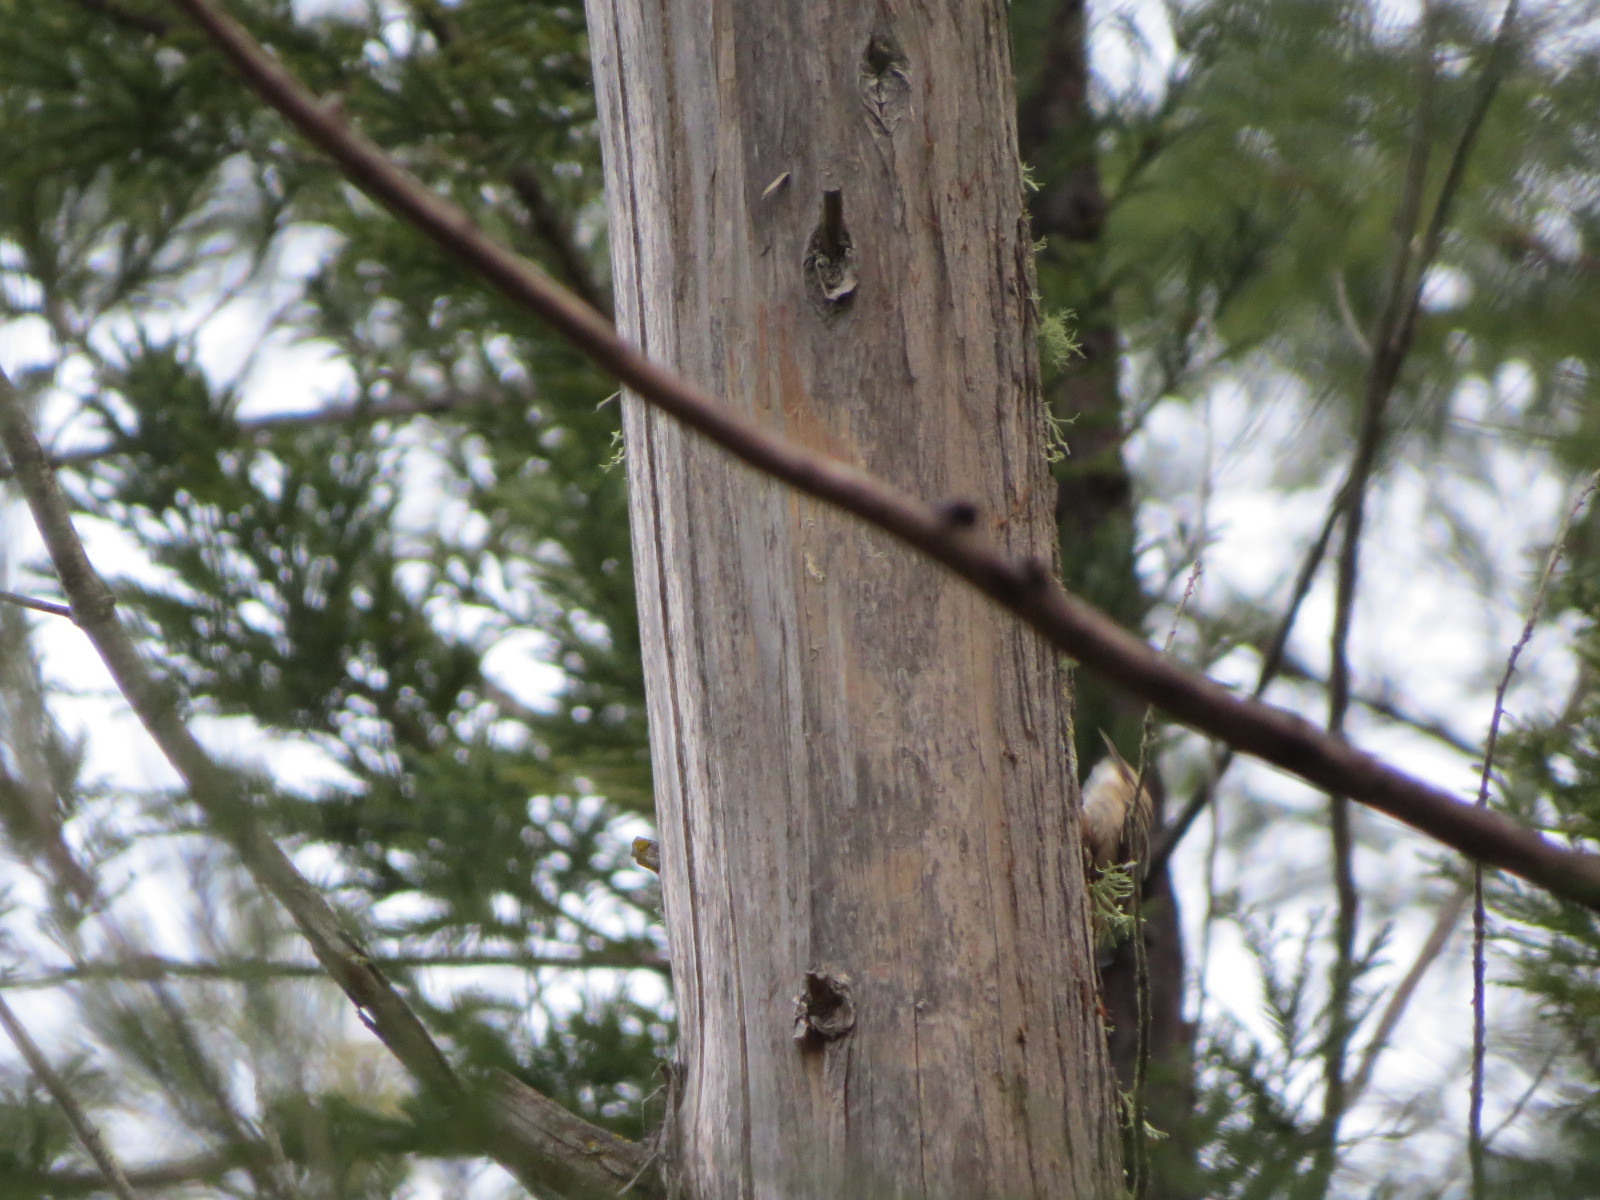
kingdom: Animalia
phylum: Chordata
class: Aves
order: Passeriformes
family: Certhiidae
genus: Certhia
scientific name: Certhia americana
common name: Brown creeper
